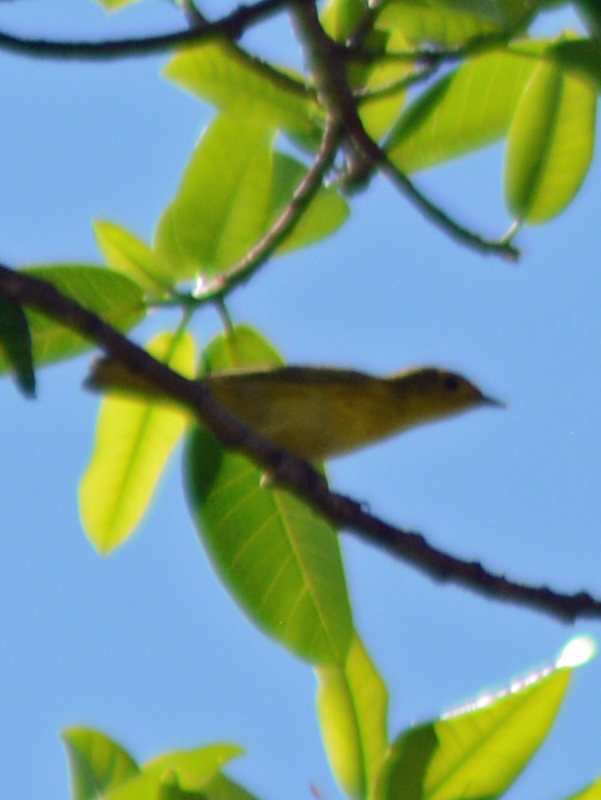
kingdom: Animalia
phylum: Chordata
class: Aves
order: Passeriformes
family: Parulidae
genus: Setophaga
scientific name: Setophaga petechia
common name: Yellow warbler
